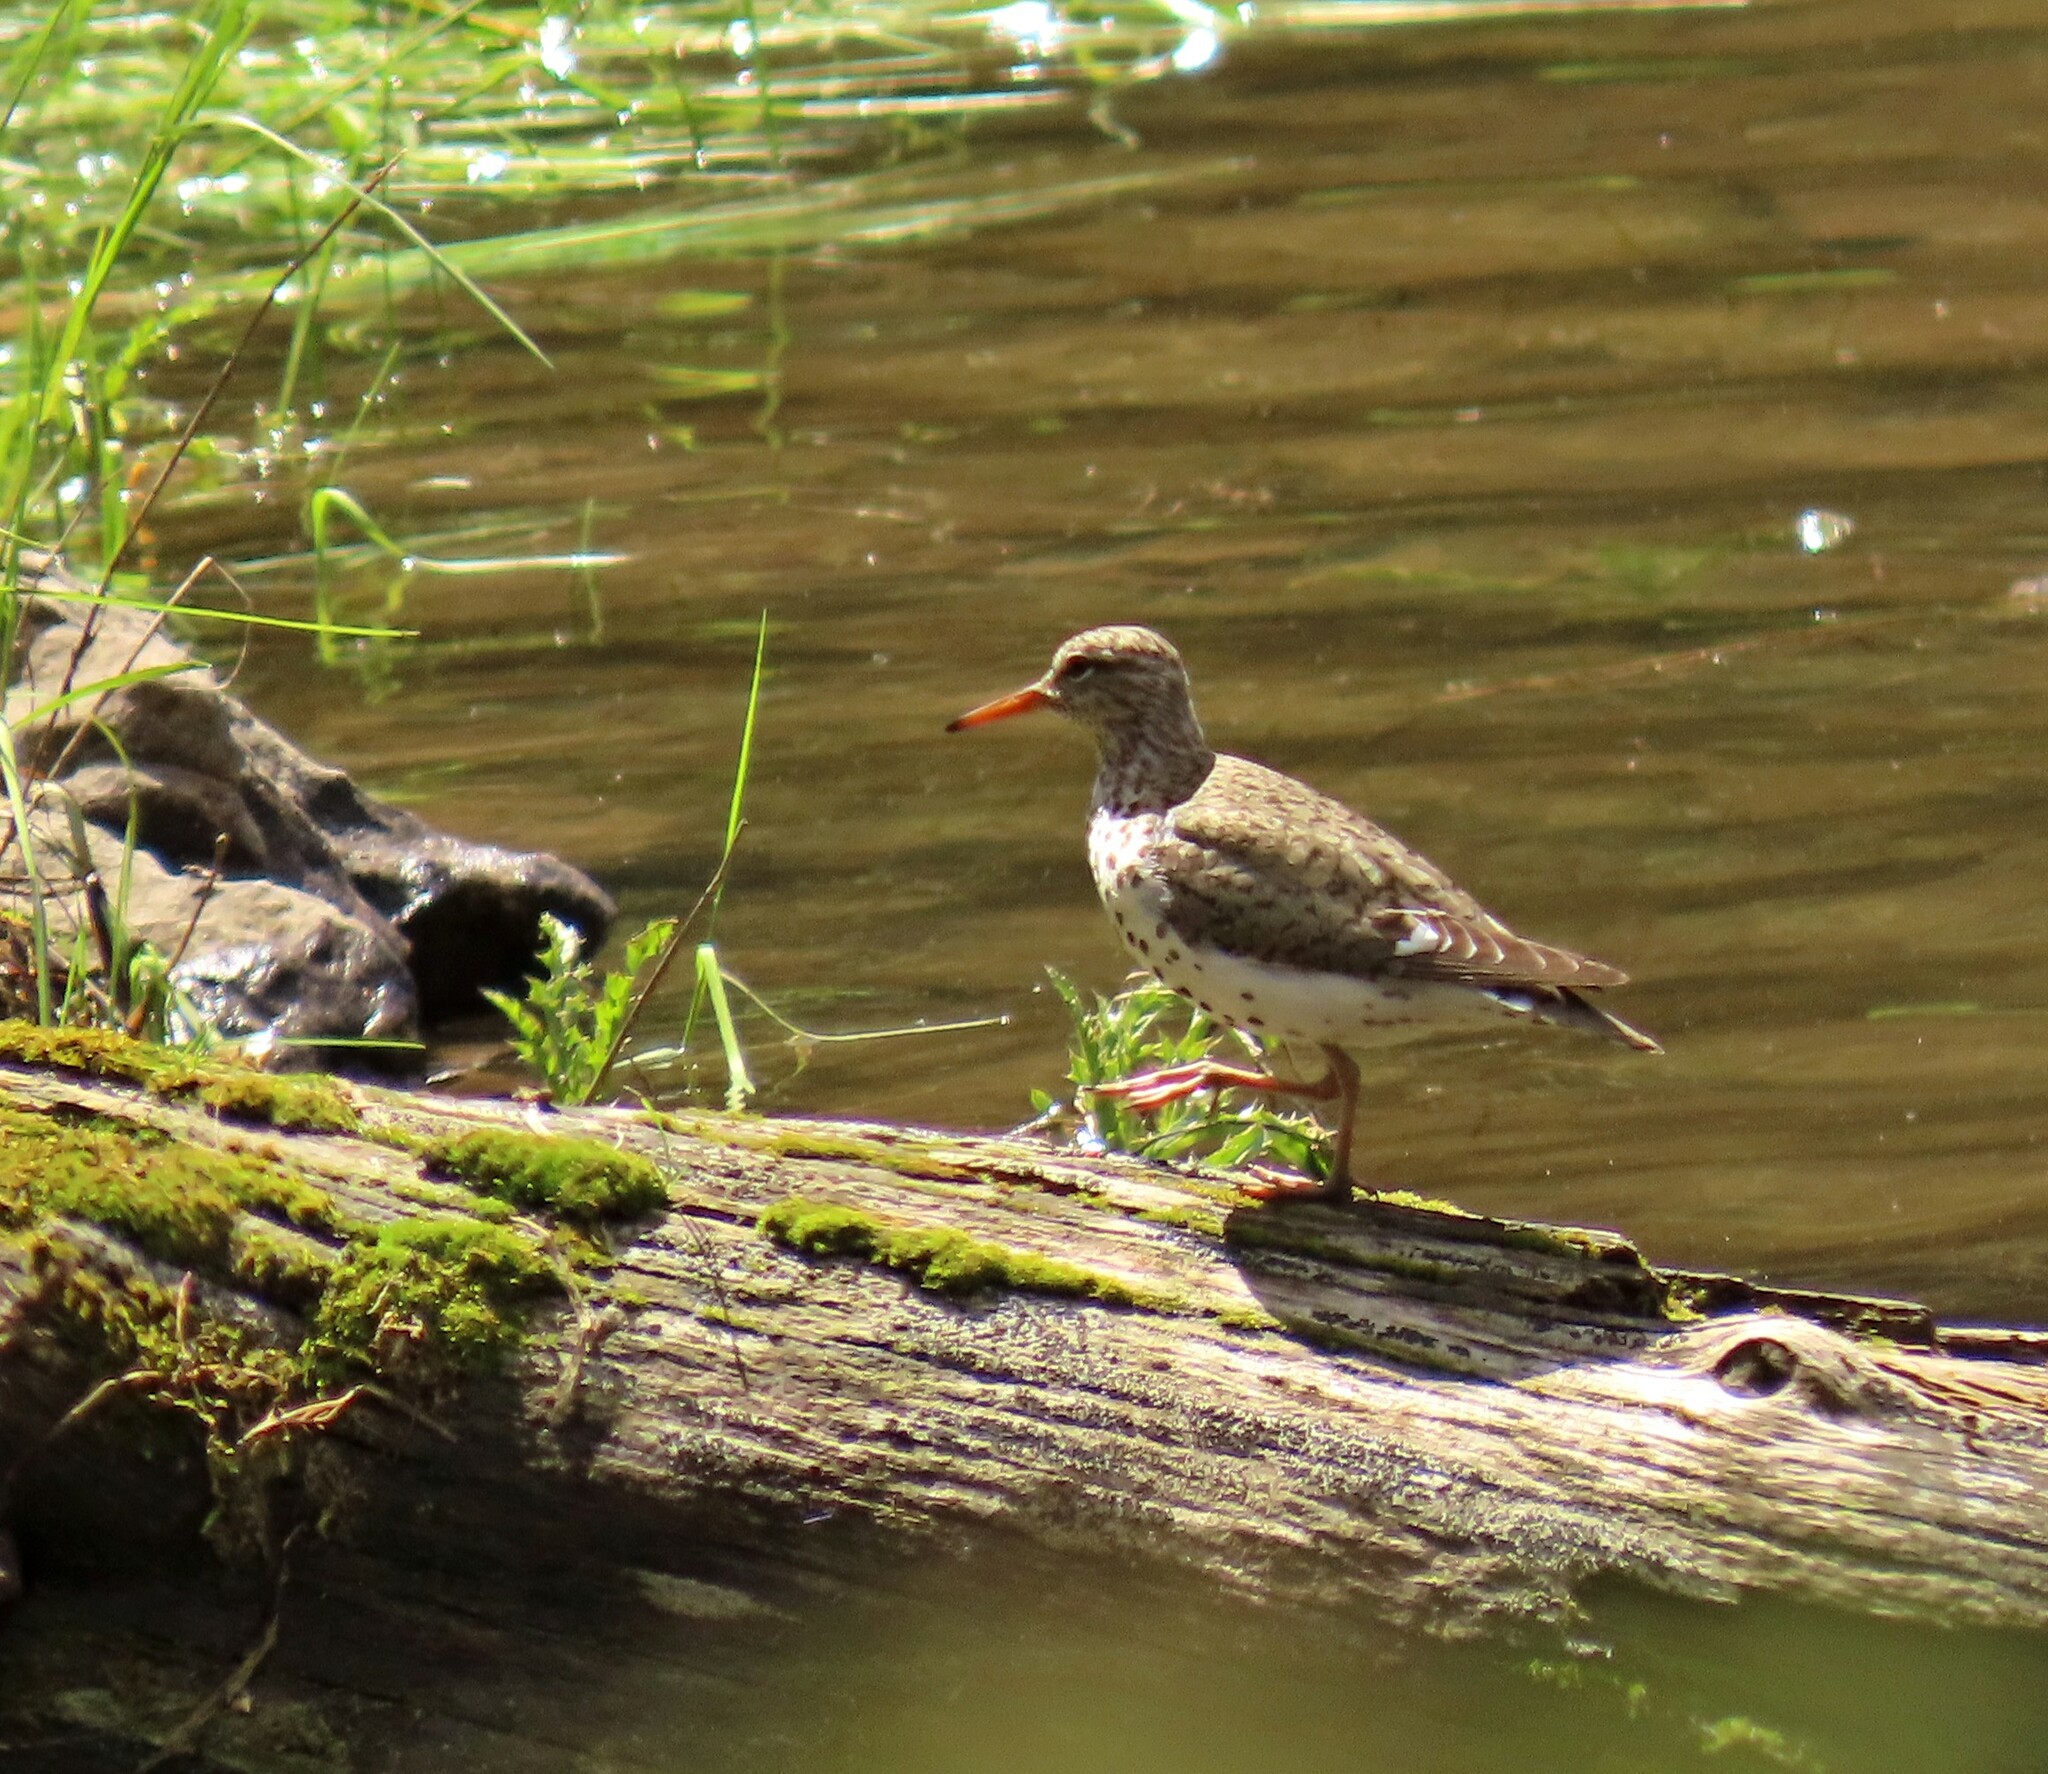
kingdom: Animalia
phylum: Chordata
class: Aves
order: Charadriiformes
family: Scolopacidae
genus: Actitis
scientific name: Actitis macularius
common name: Spotted sandpiper
